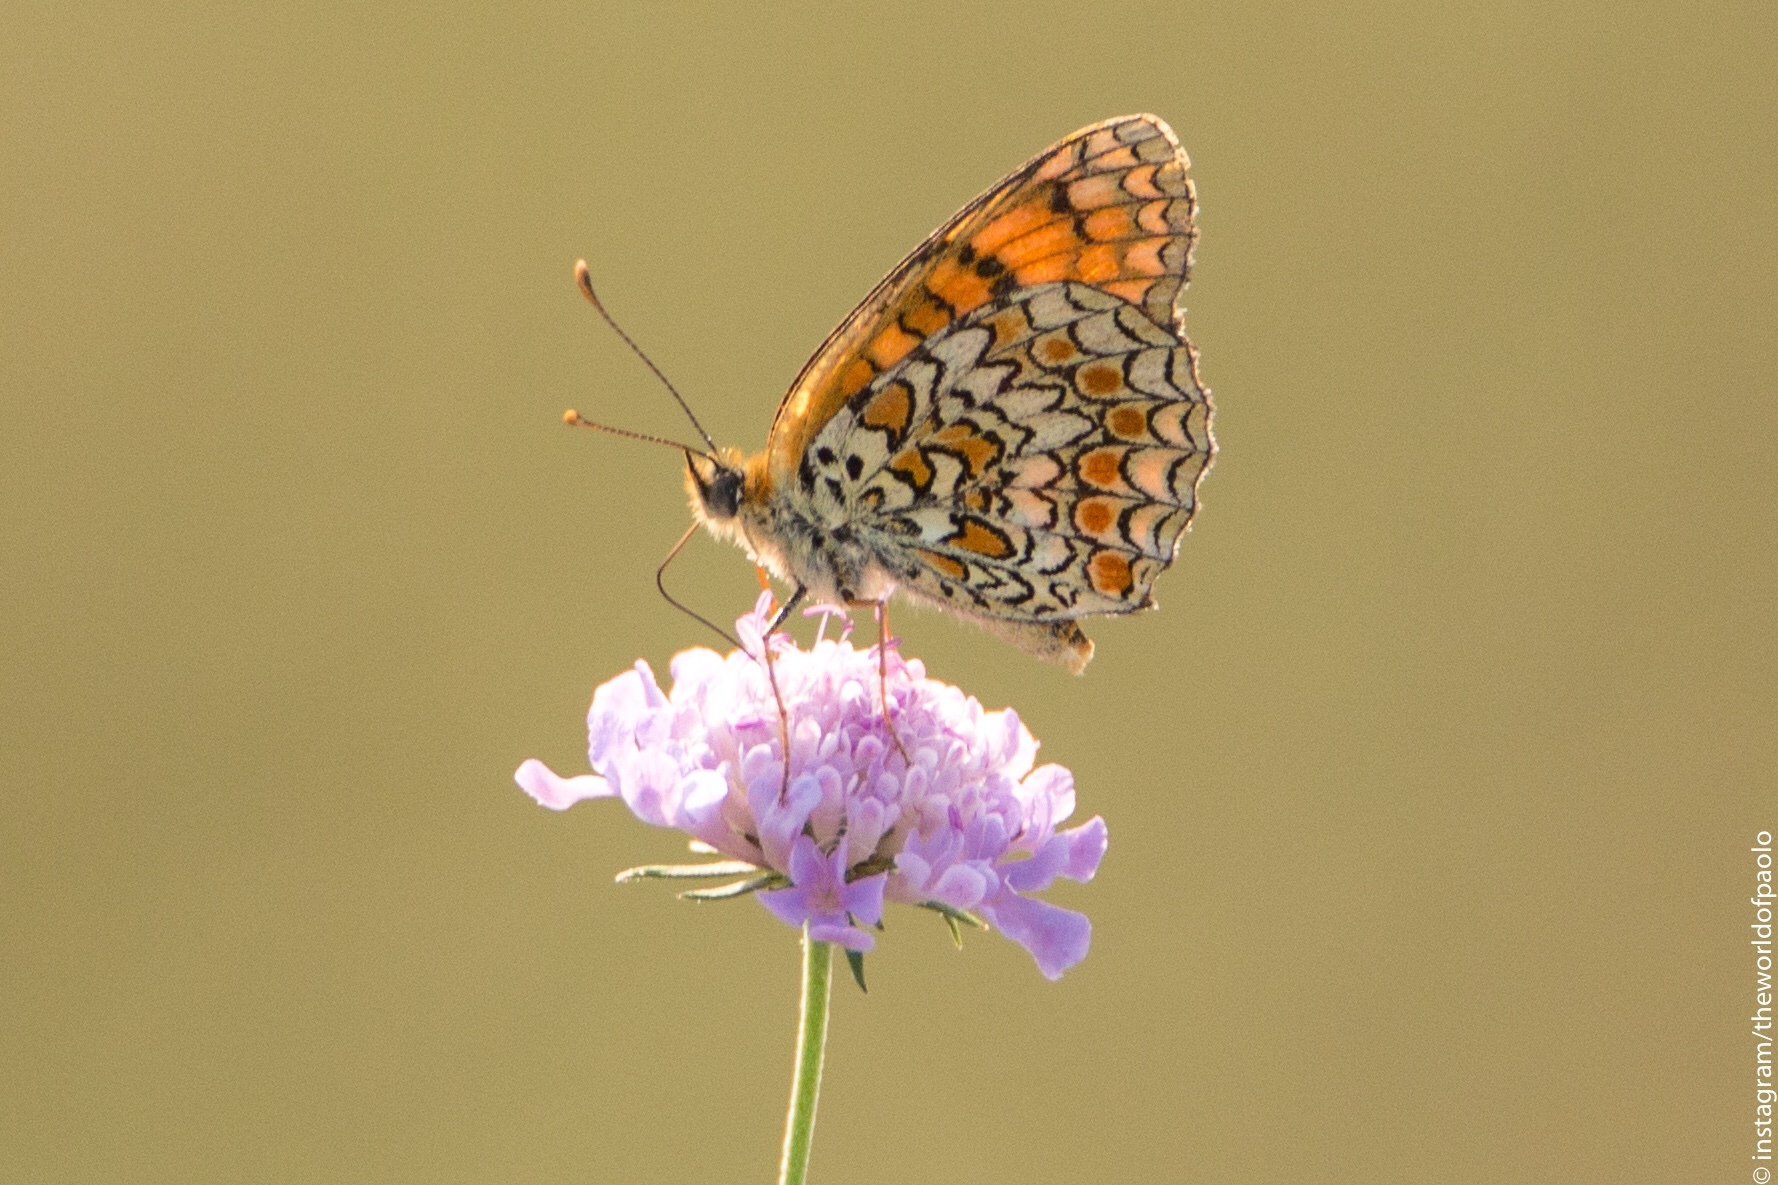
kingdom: Animalia
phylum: Arthropoda
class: Insecta
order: Lepidoptera
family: Nymphalidae
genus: Melitaea
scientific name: Melitaea phoebe
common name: Knapweed fritillary
